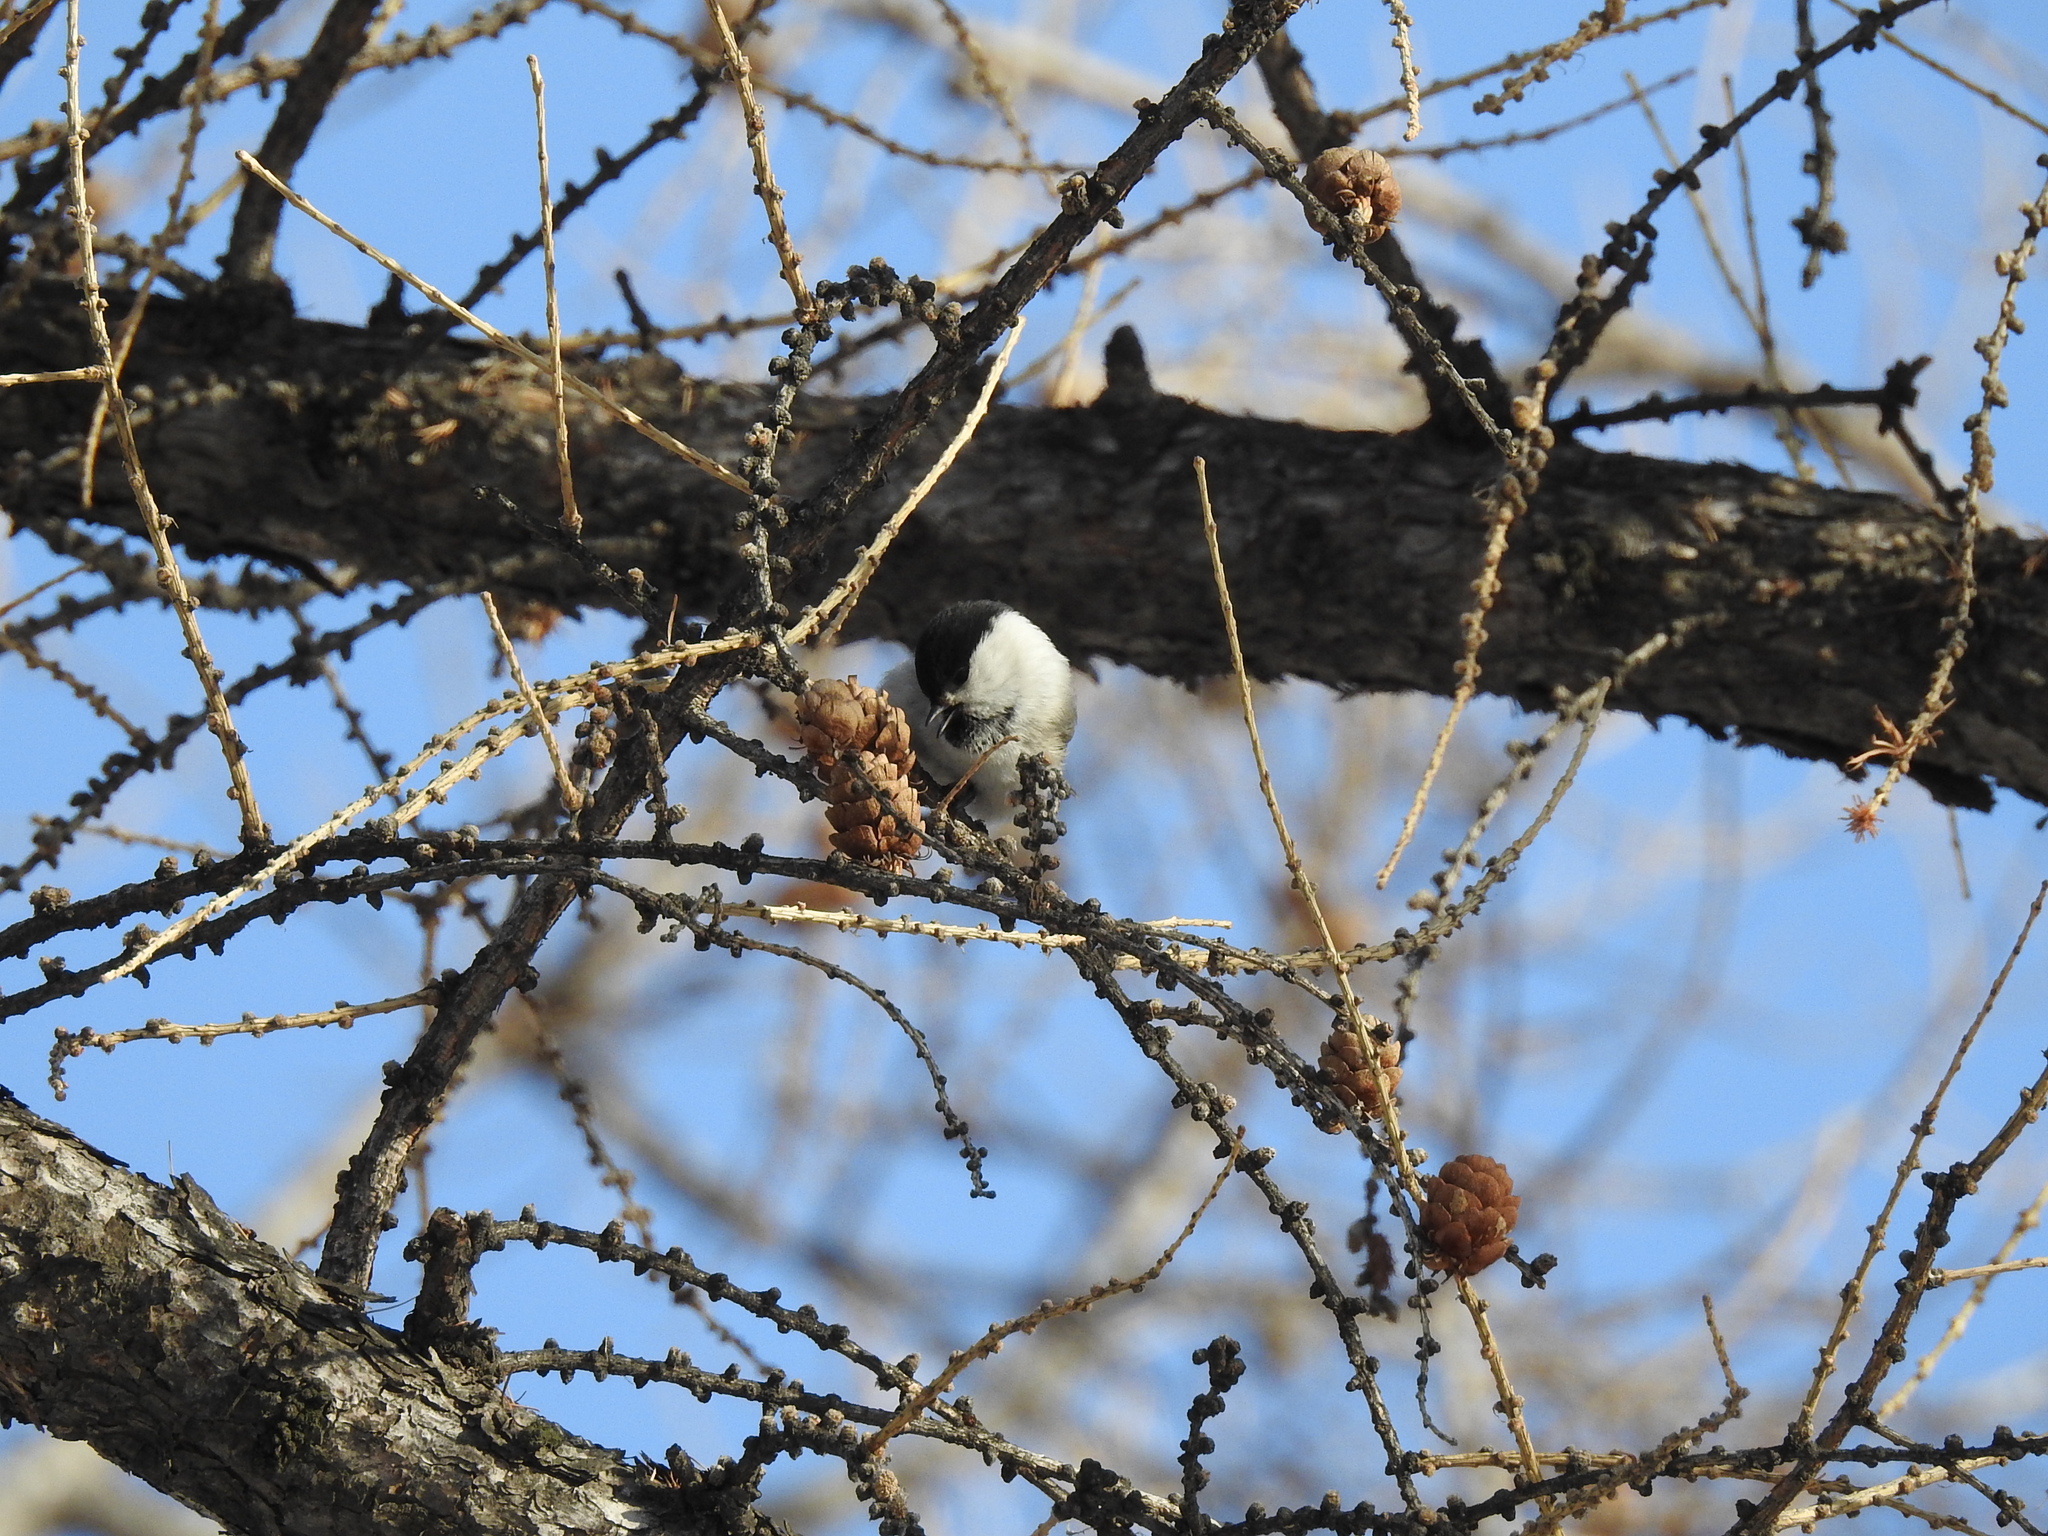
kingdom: Animalia
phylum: Chordata
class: Aves
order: Passeriformes
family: Paridae
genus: Poecile
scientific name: Poecile montanus
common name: Willow tit
